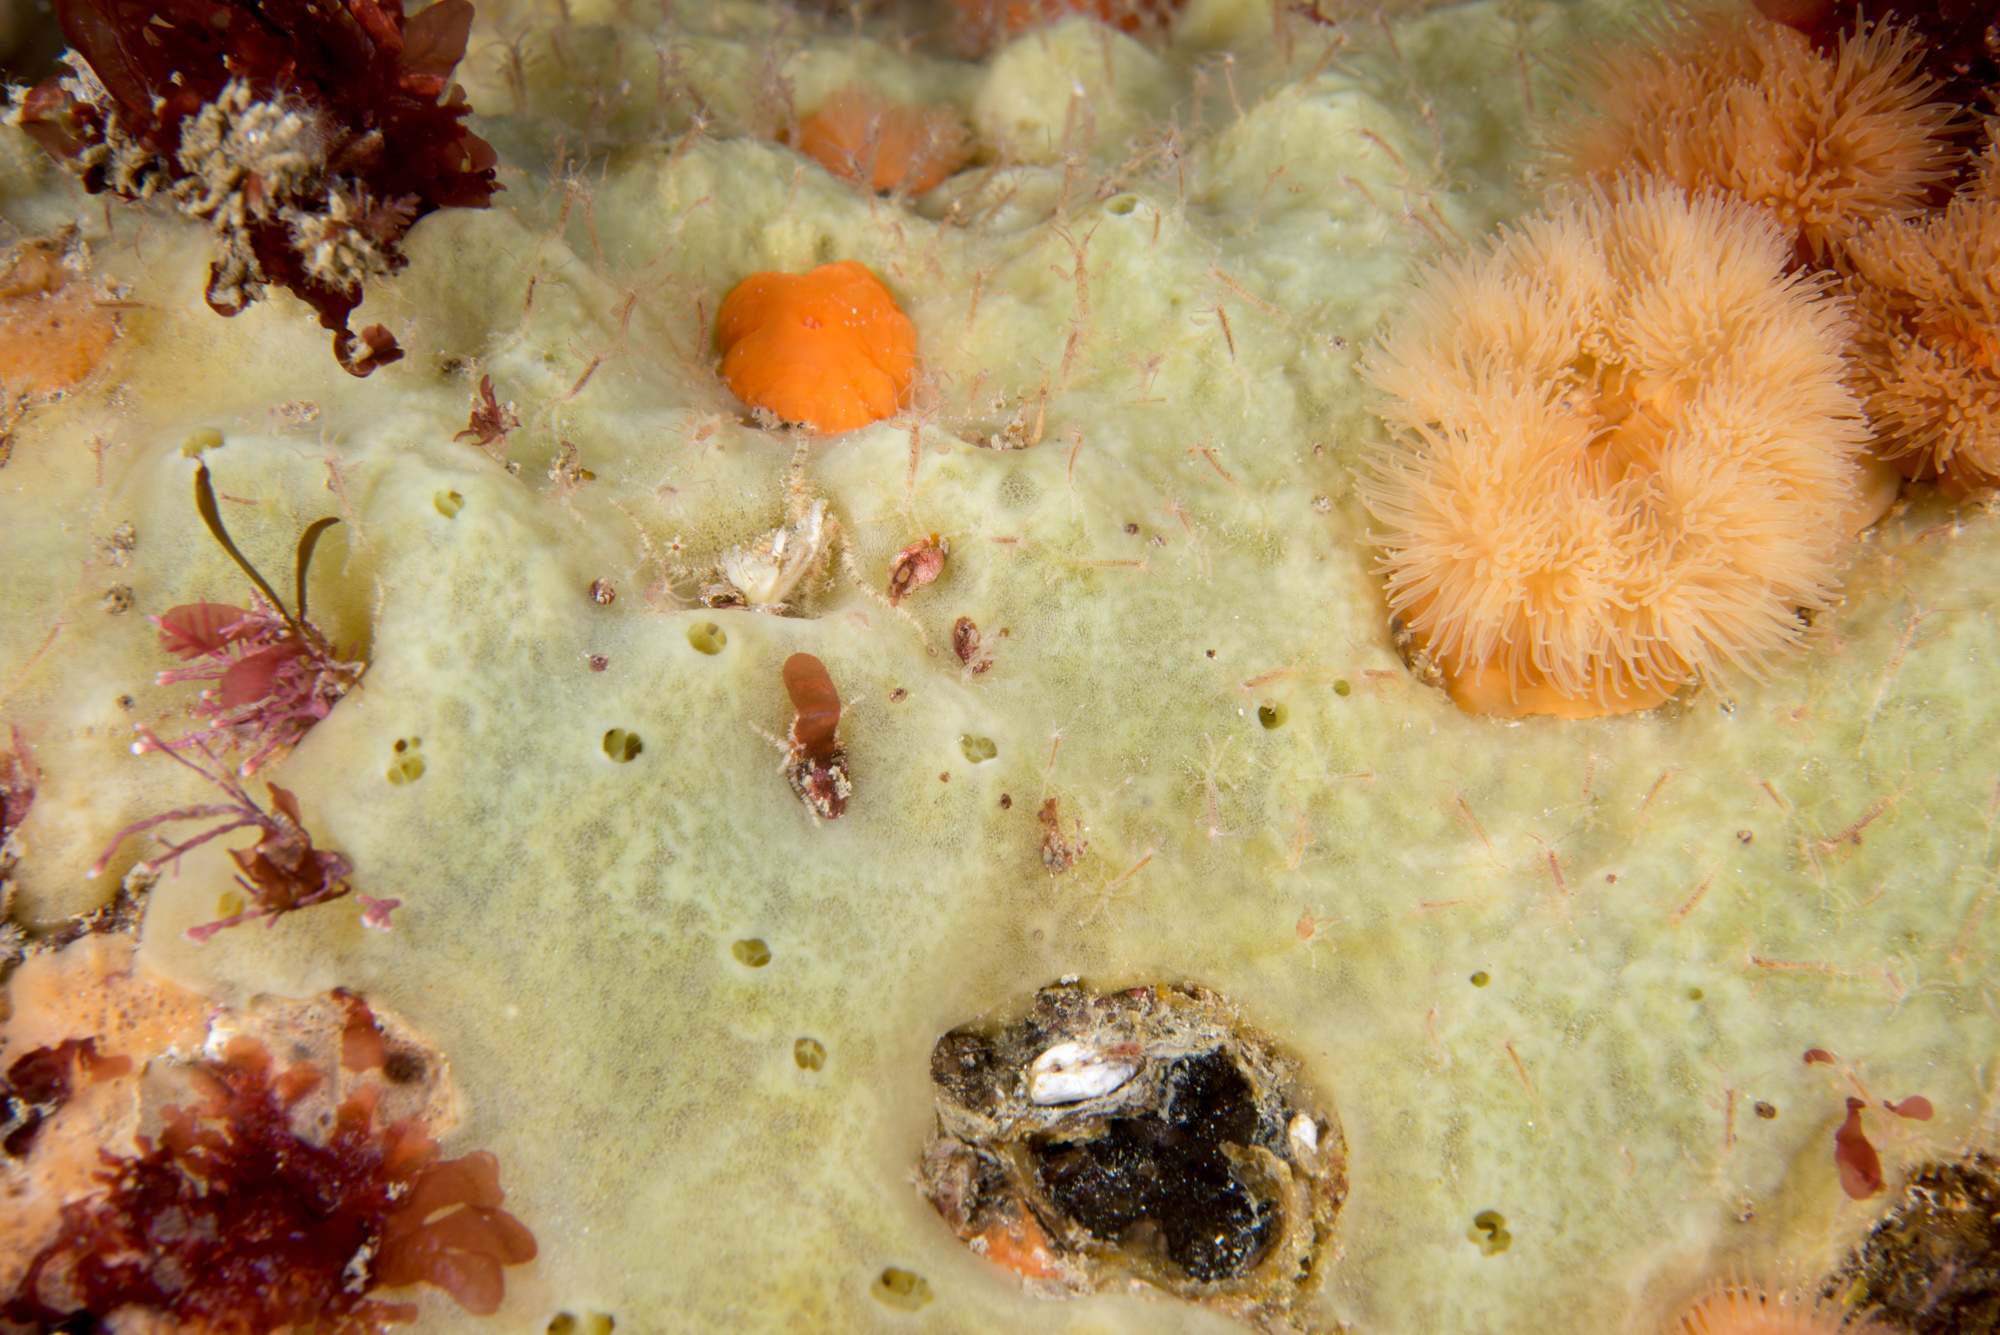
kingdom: Animalia
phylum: Porifera
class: Demospongiae
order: Suberitida
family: Halichondriidae
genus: Halichondria
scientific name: Halichondria panicea
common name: Breadcrumb sponge
